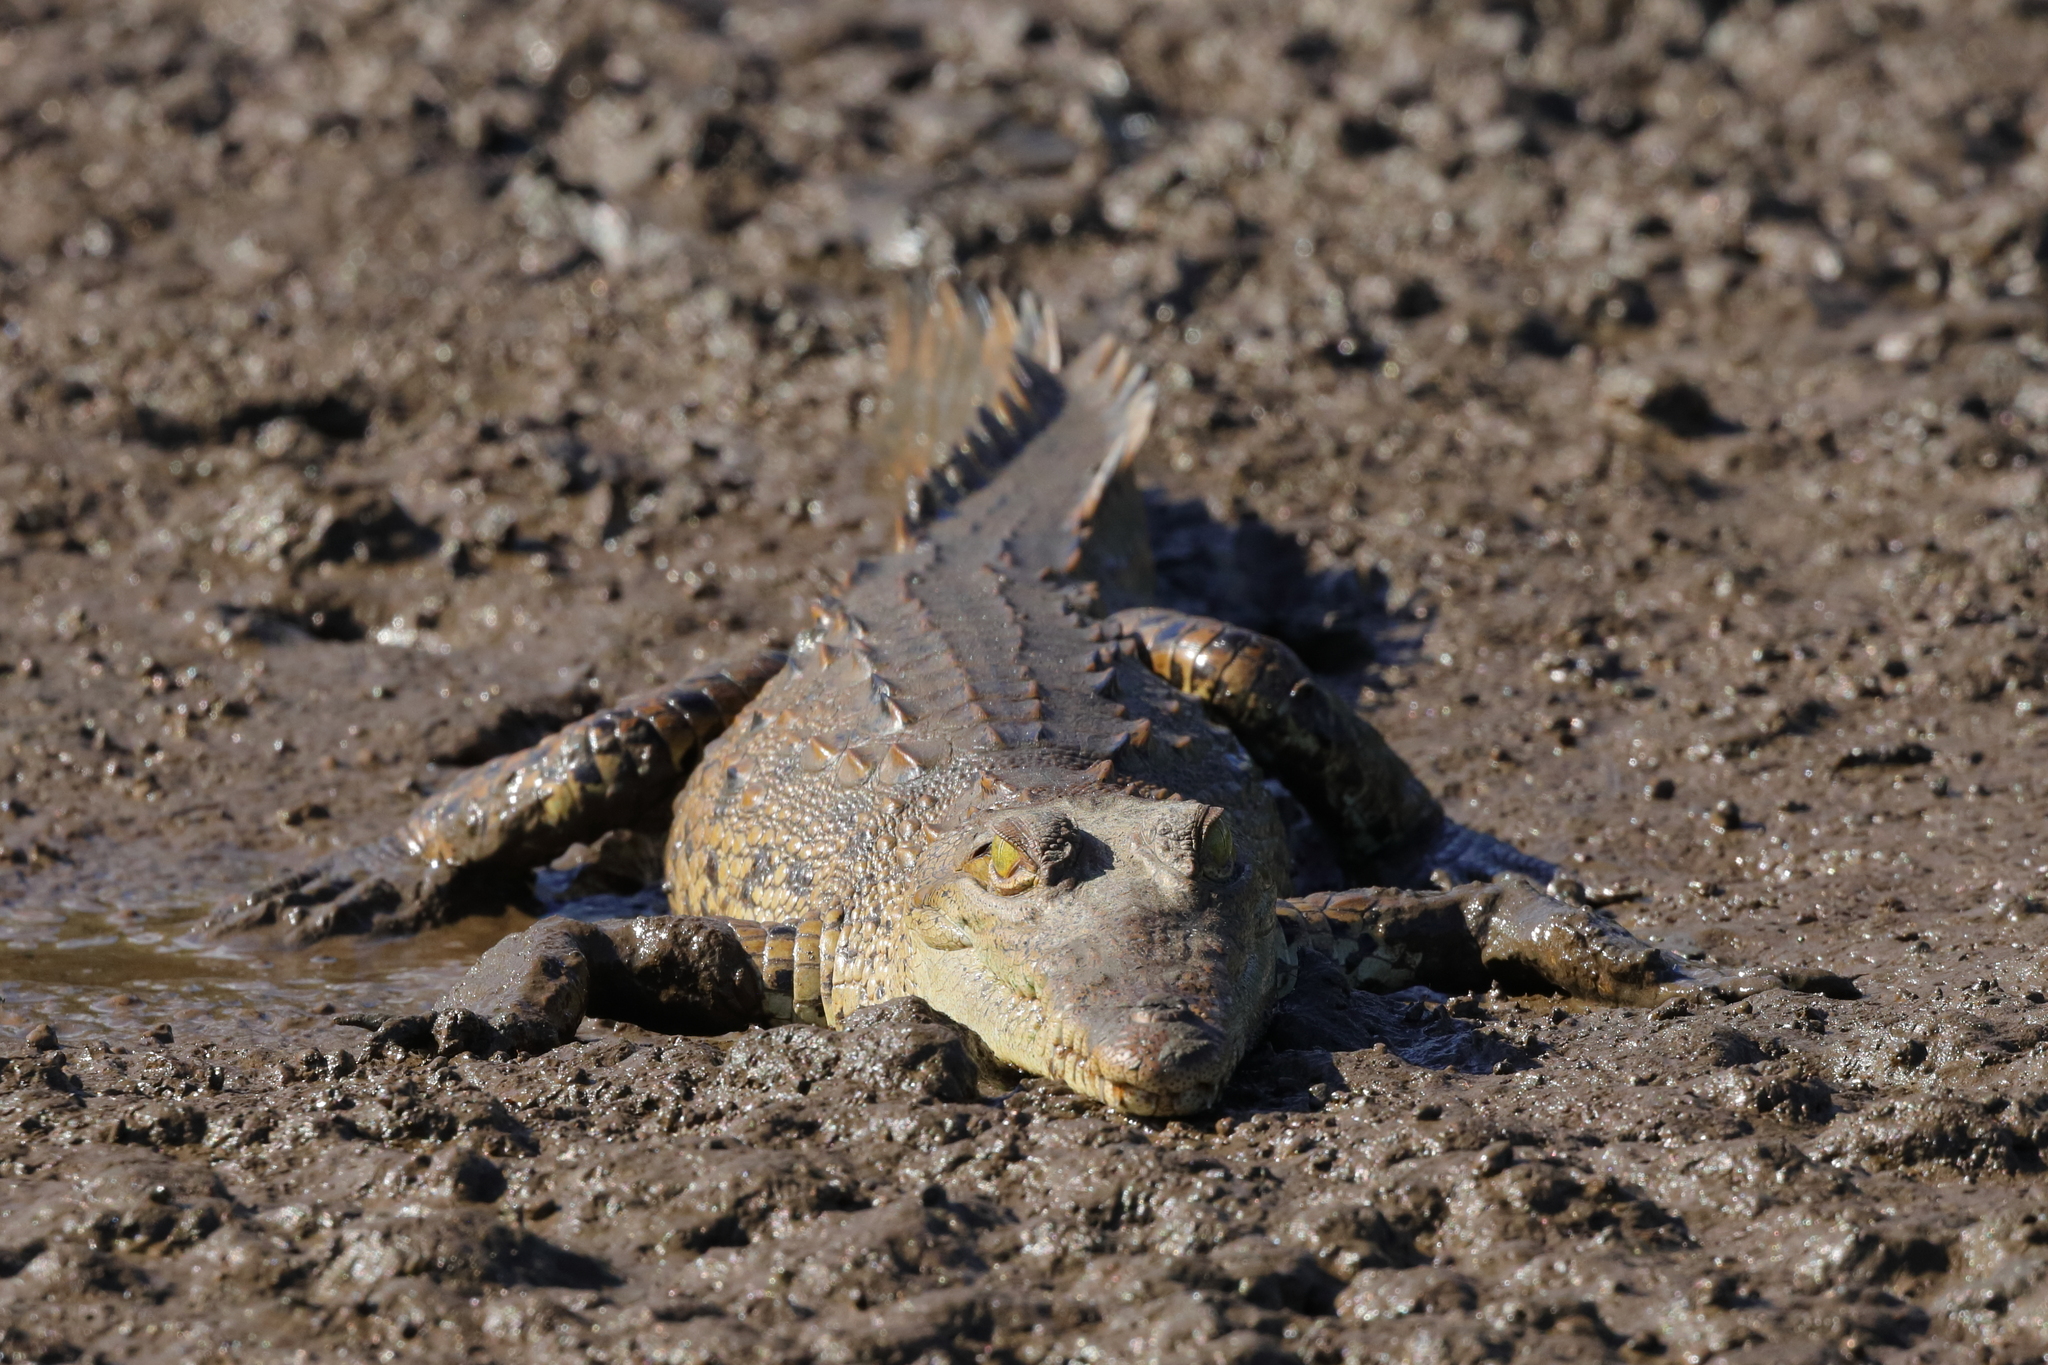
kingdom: Animalia
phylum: Chordata
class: Crocodylia
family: Crocodylidae
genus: Crocodylus
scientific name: Crocodylus acutus
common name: American crocodile
